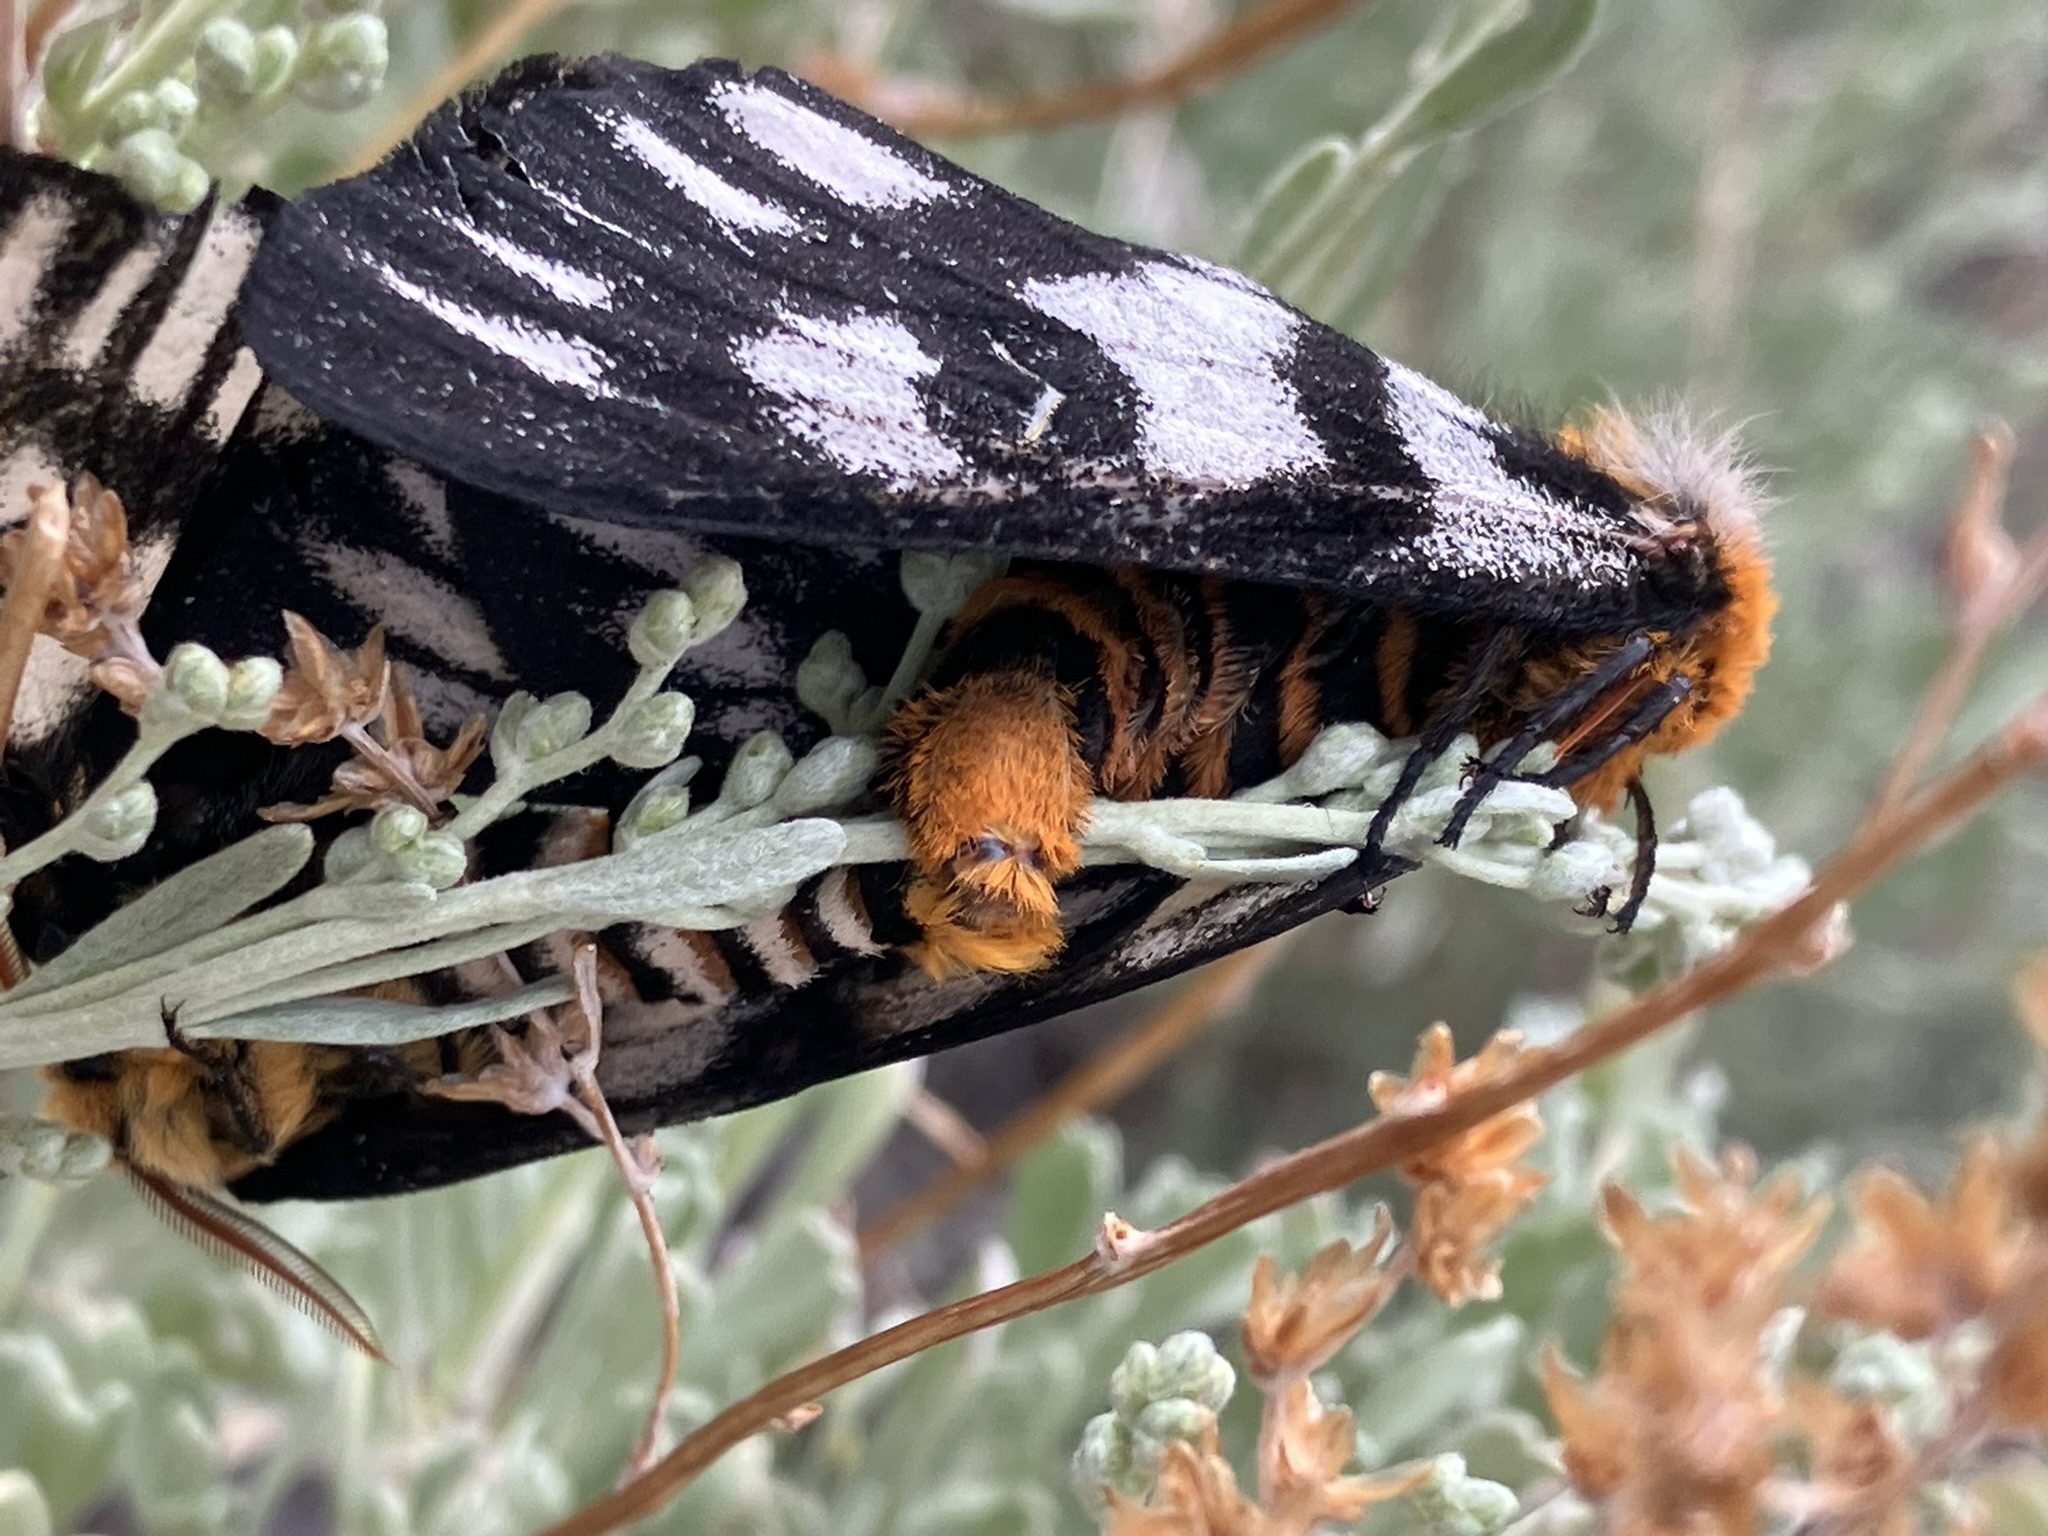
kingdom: Animalia
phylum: Arthropoda
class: Insecta
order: Lepidoptera
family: Saturniidae
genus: Hemileuca
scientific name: Hemileuca hera
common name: Hera sheepmoth
